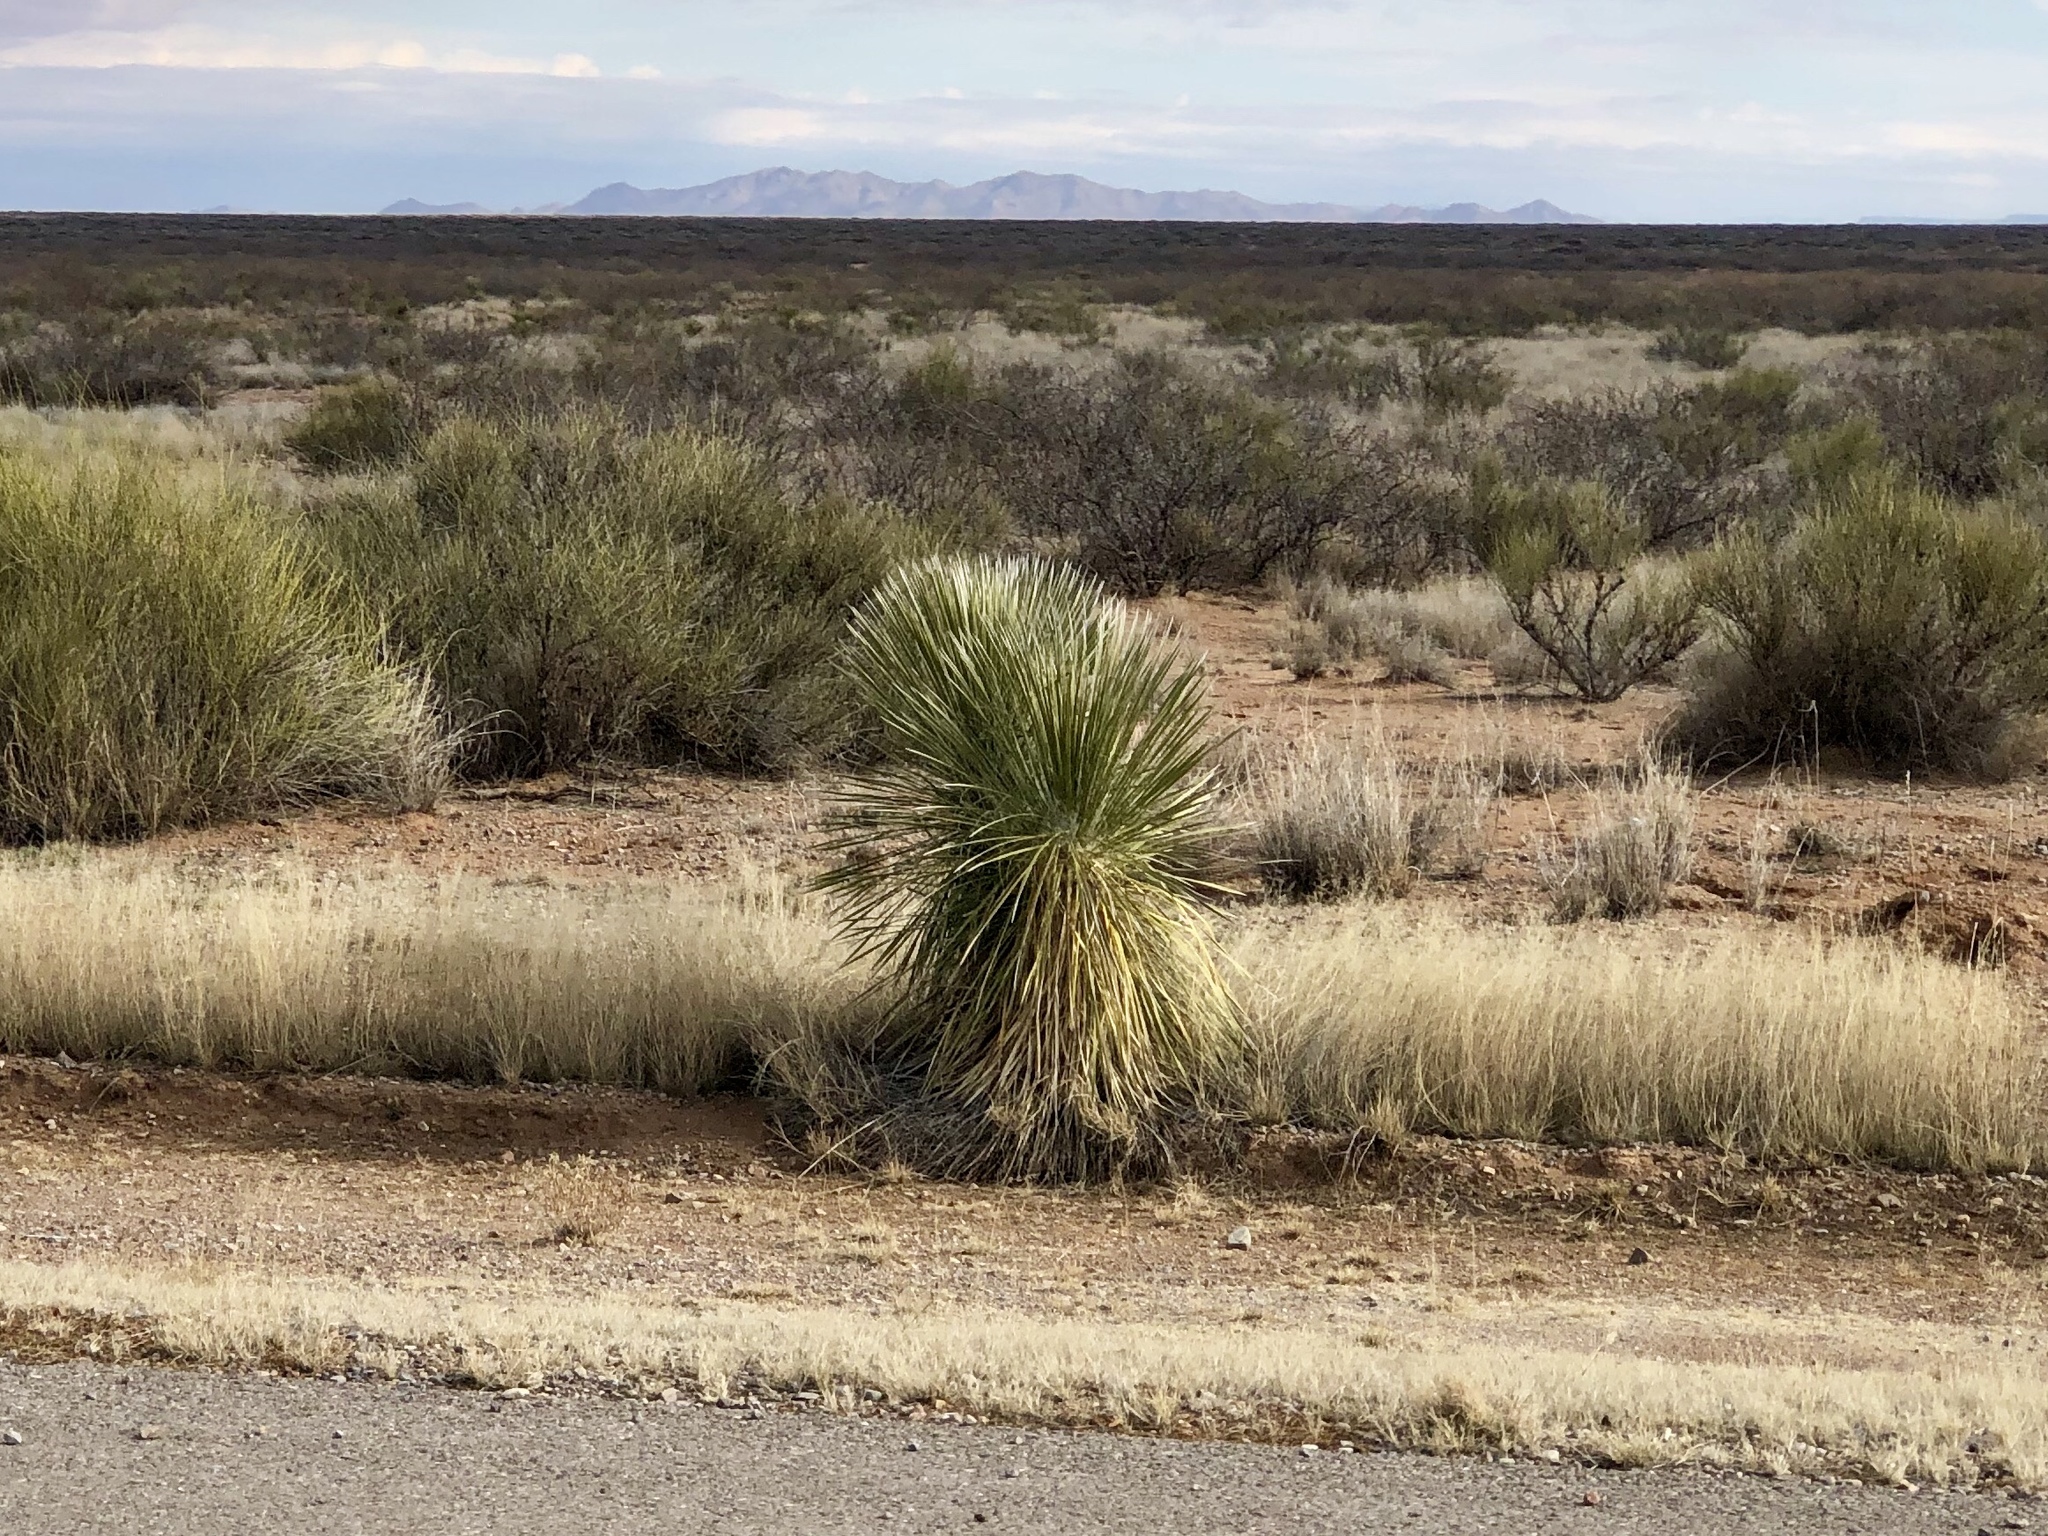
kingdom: Plantae
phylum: Tracheophyta
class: Liliopsida
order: Asparagales
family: Asparagaceae
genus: Yucca
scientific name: Yucca elata
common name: Palmella
